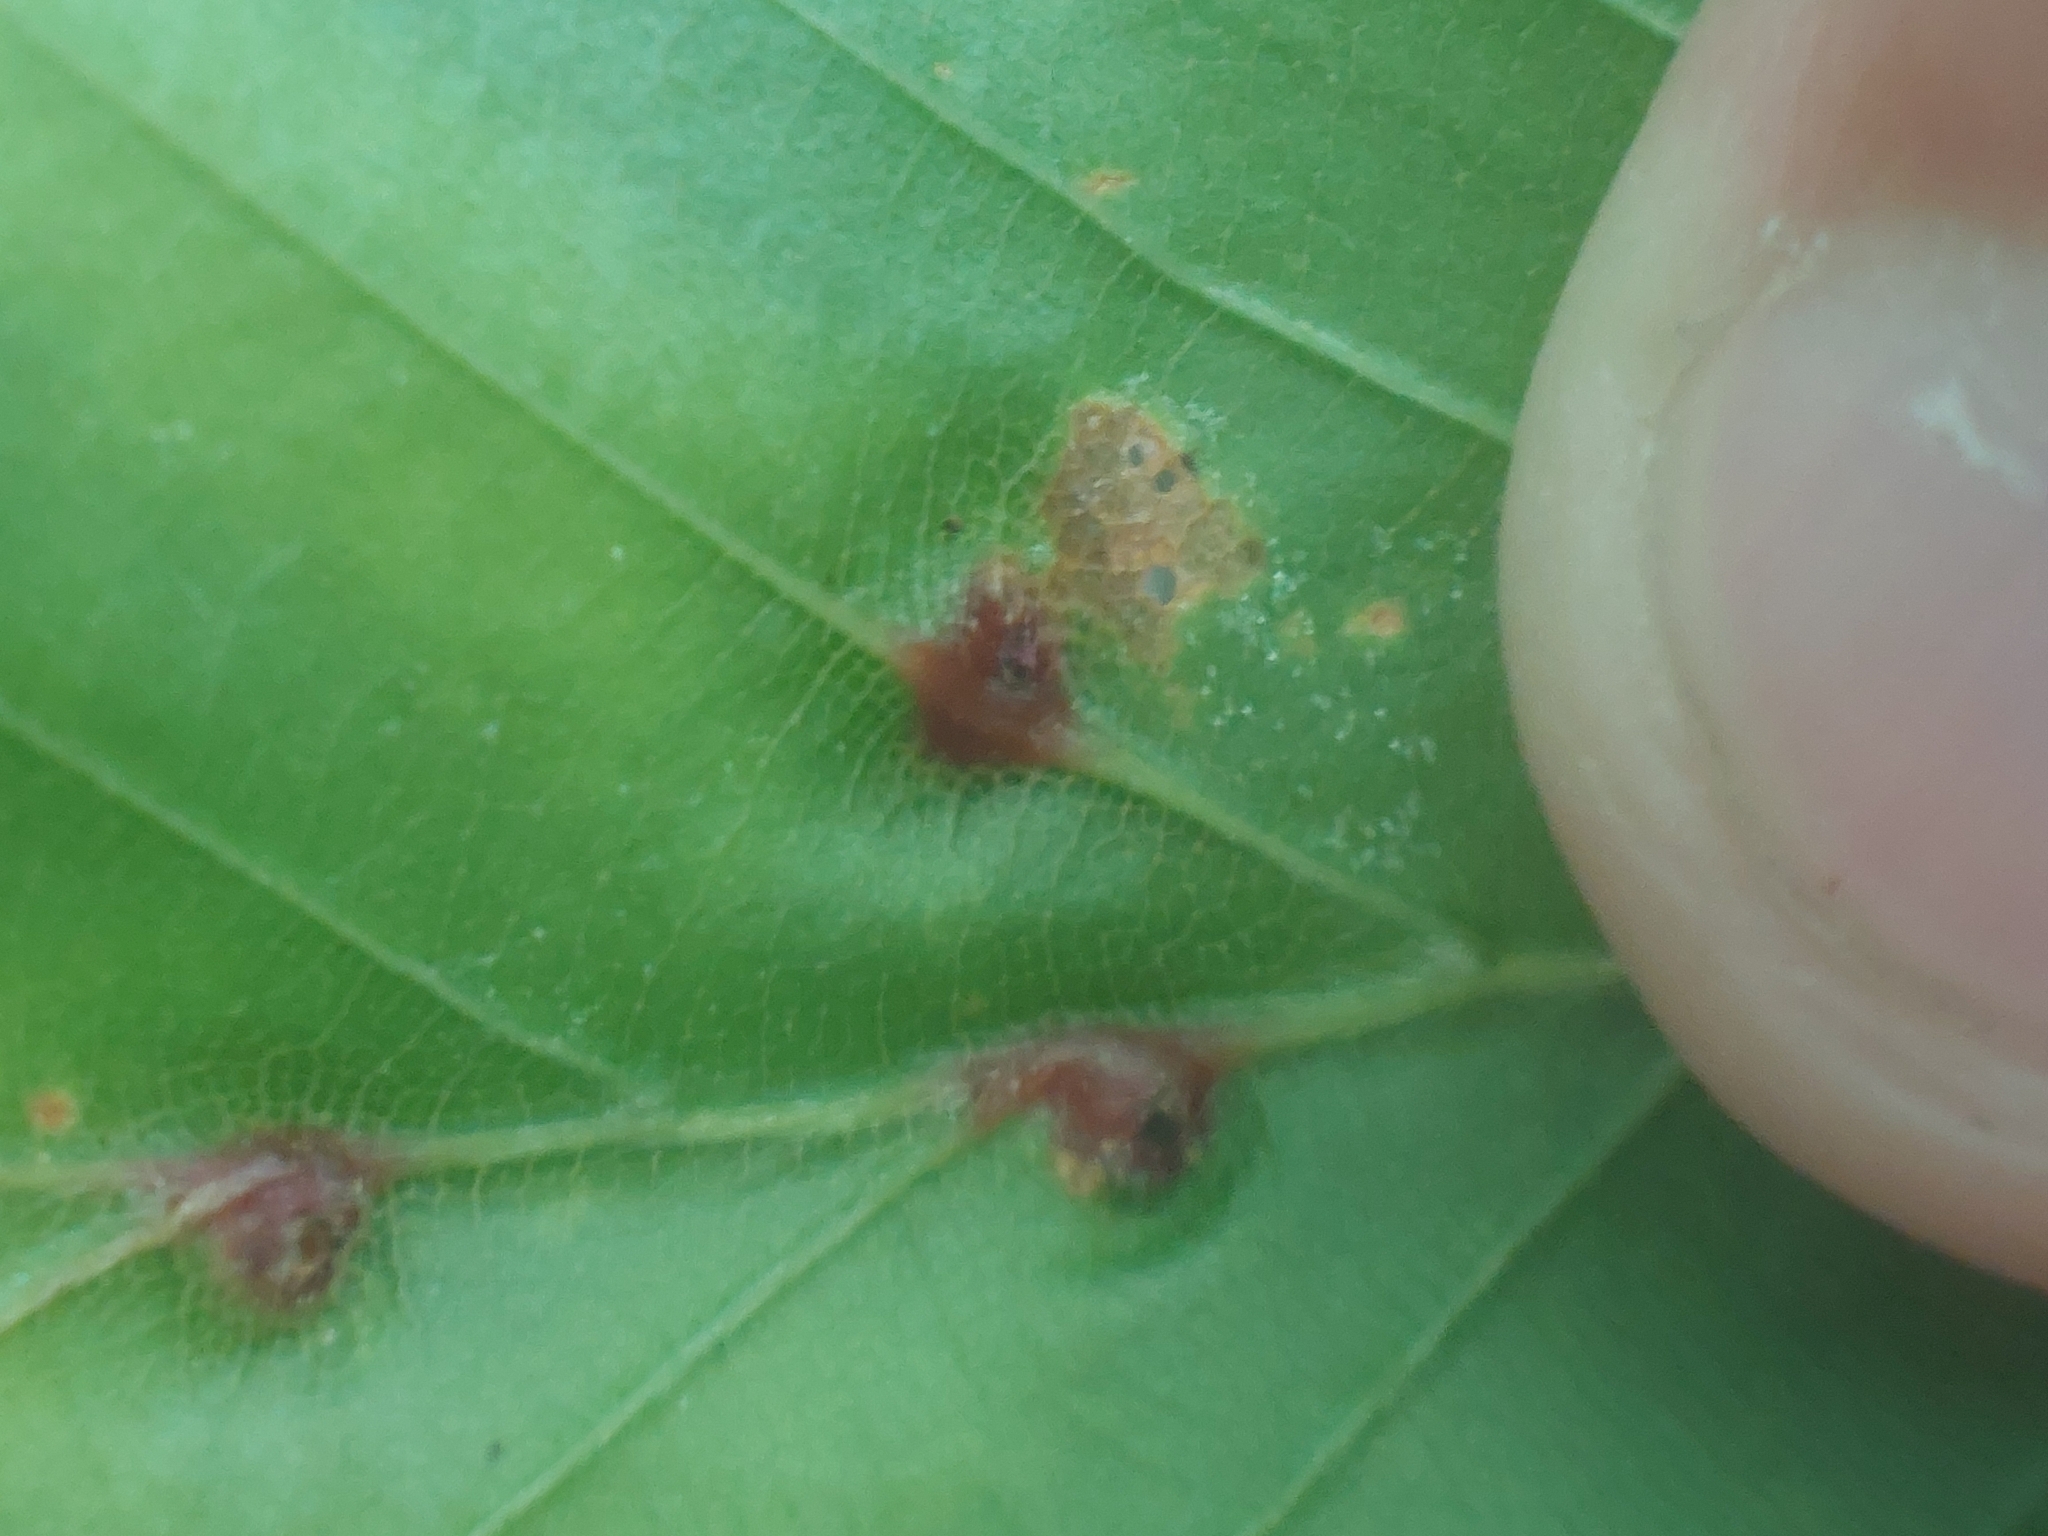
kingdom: Animalia
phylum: Arthropoda
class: Insecta
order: Diptera
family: Cecidomyiidae
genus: Mikiola
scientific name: Mikiola fagi
